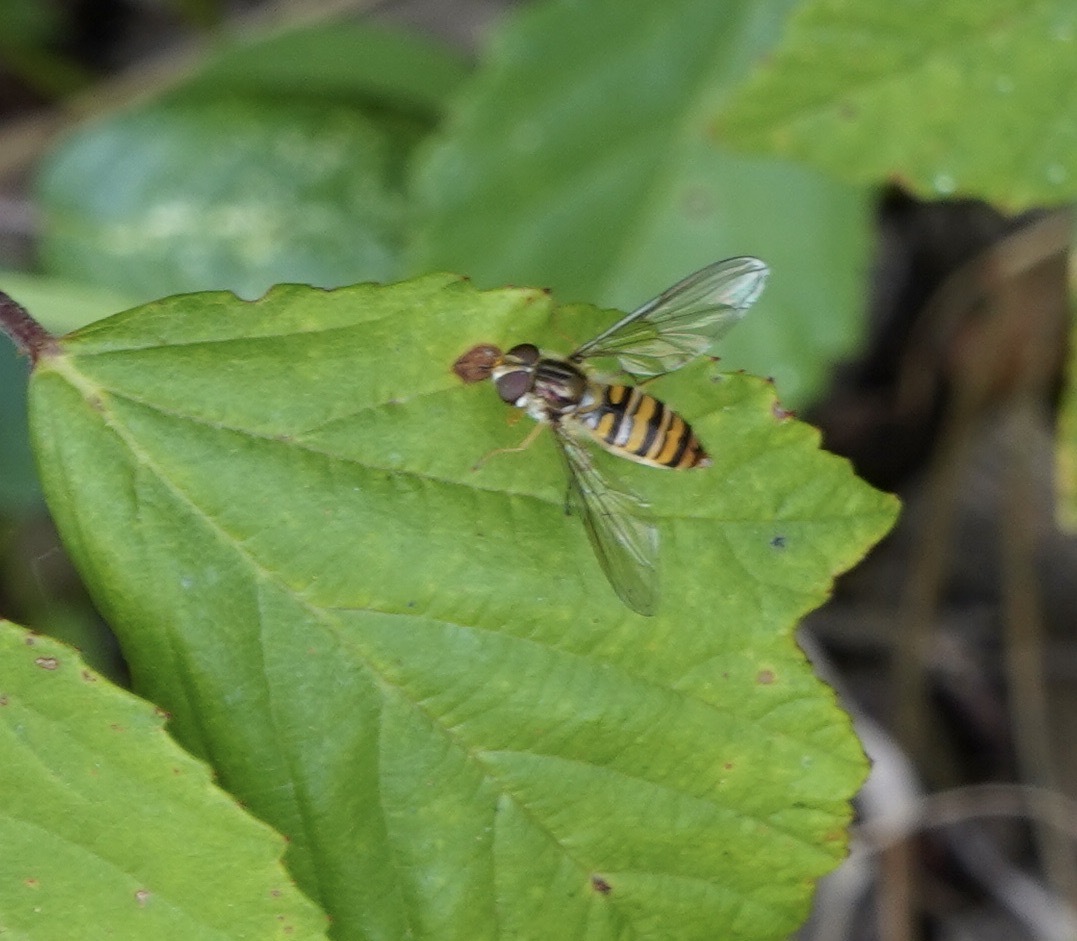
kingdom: Animalia
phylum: Arthropoda
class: Insecta
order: Diptera
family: Syrphidae
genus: Episyrphus
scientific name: Episyrphus balteatus
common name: Marmalade hoverfly
